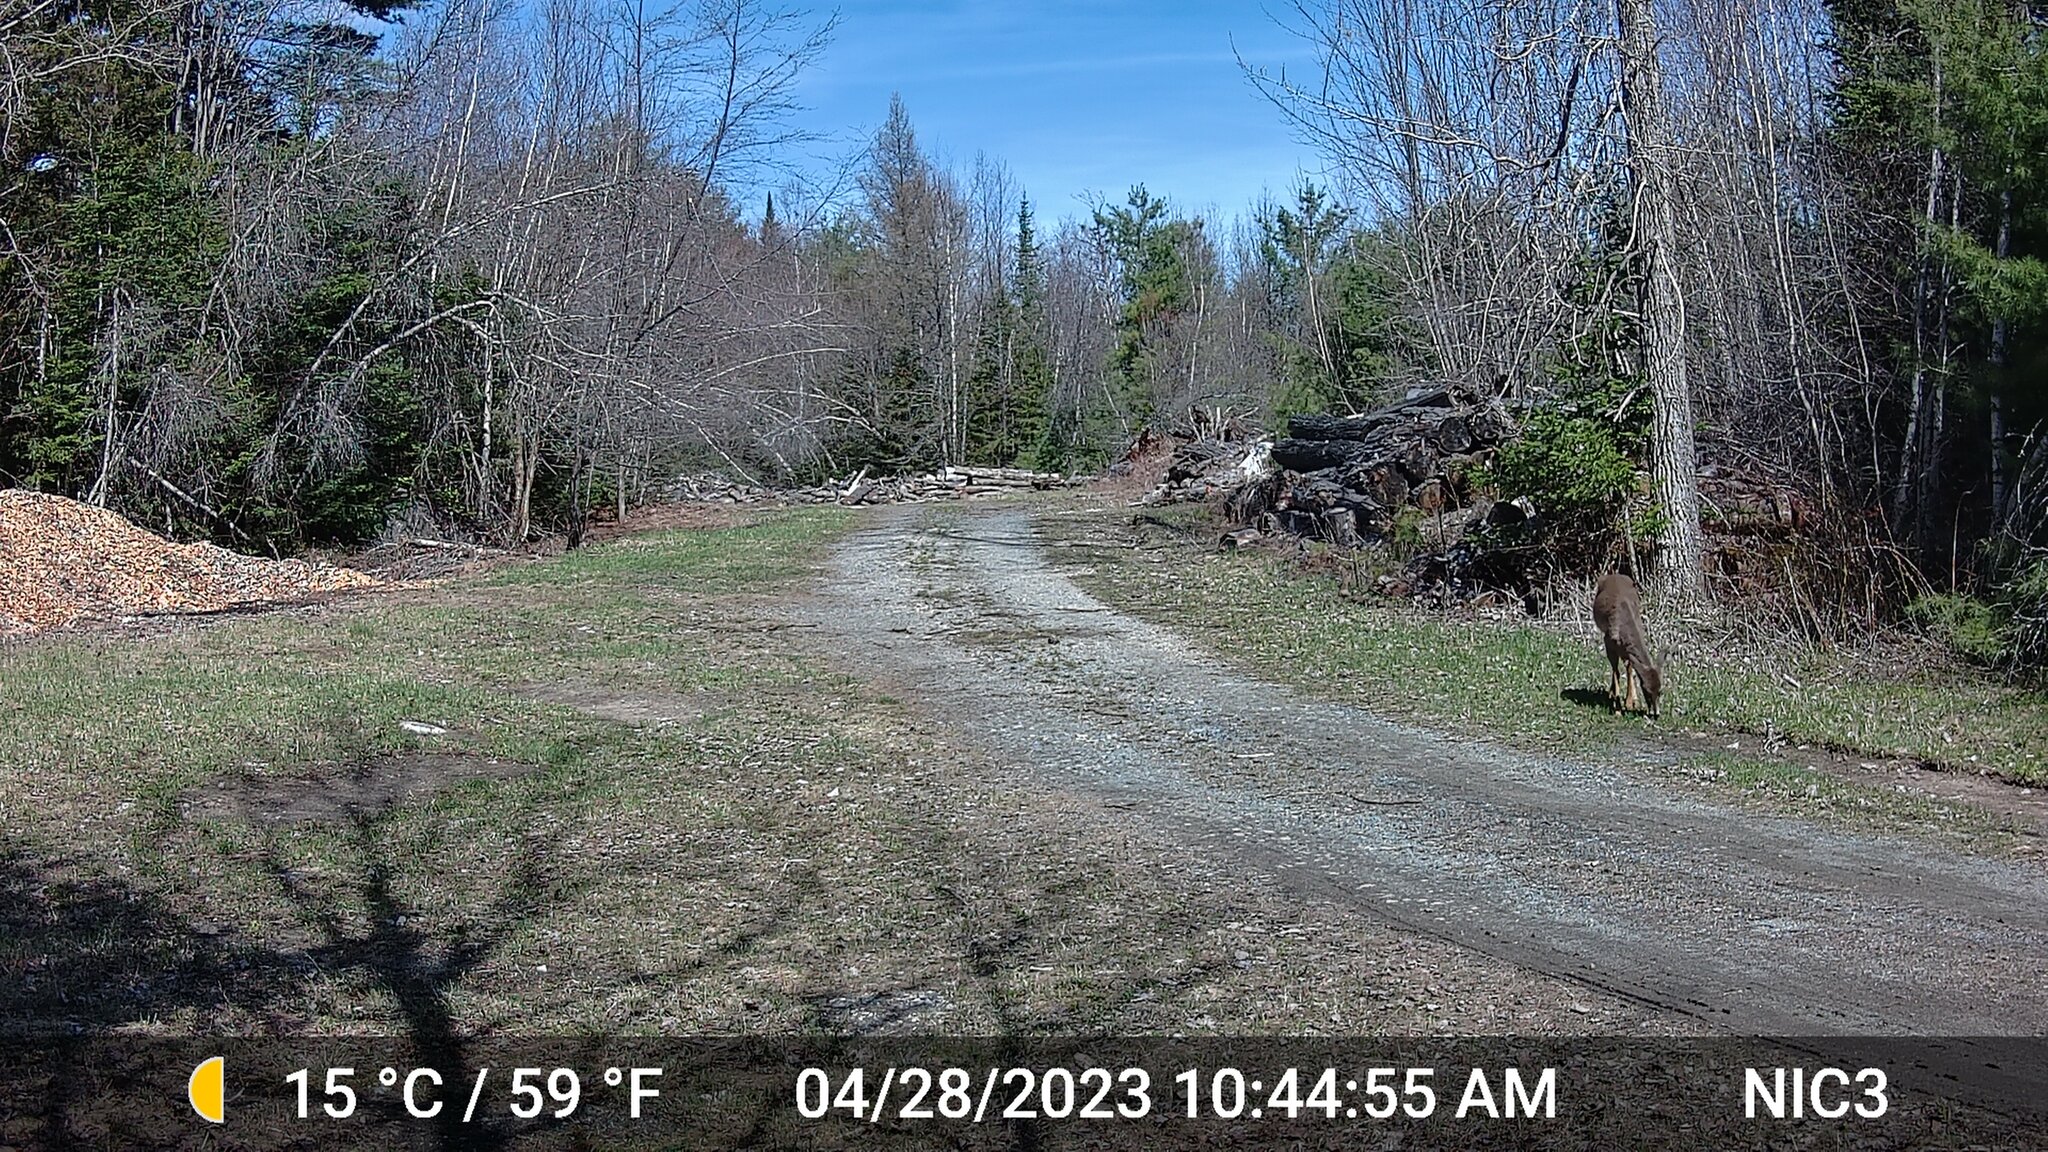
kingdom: Animalia
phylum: Chordata
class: Mammalia
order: Artiodactyla
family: Cervidae
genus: Odocoileus
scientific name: Odocoileus virginianus
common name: White-tailed deer
